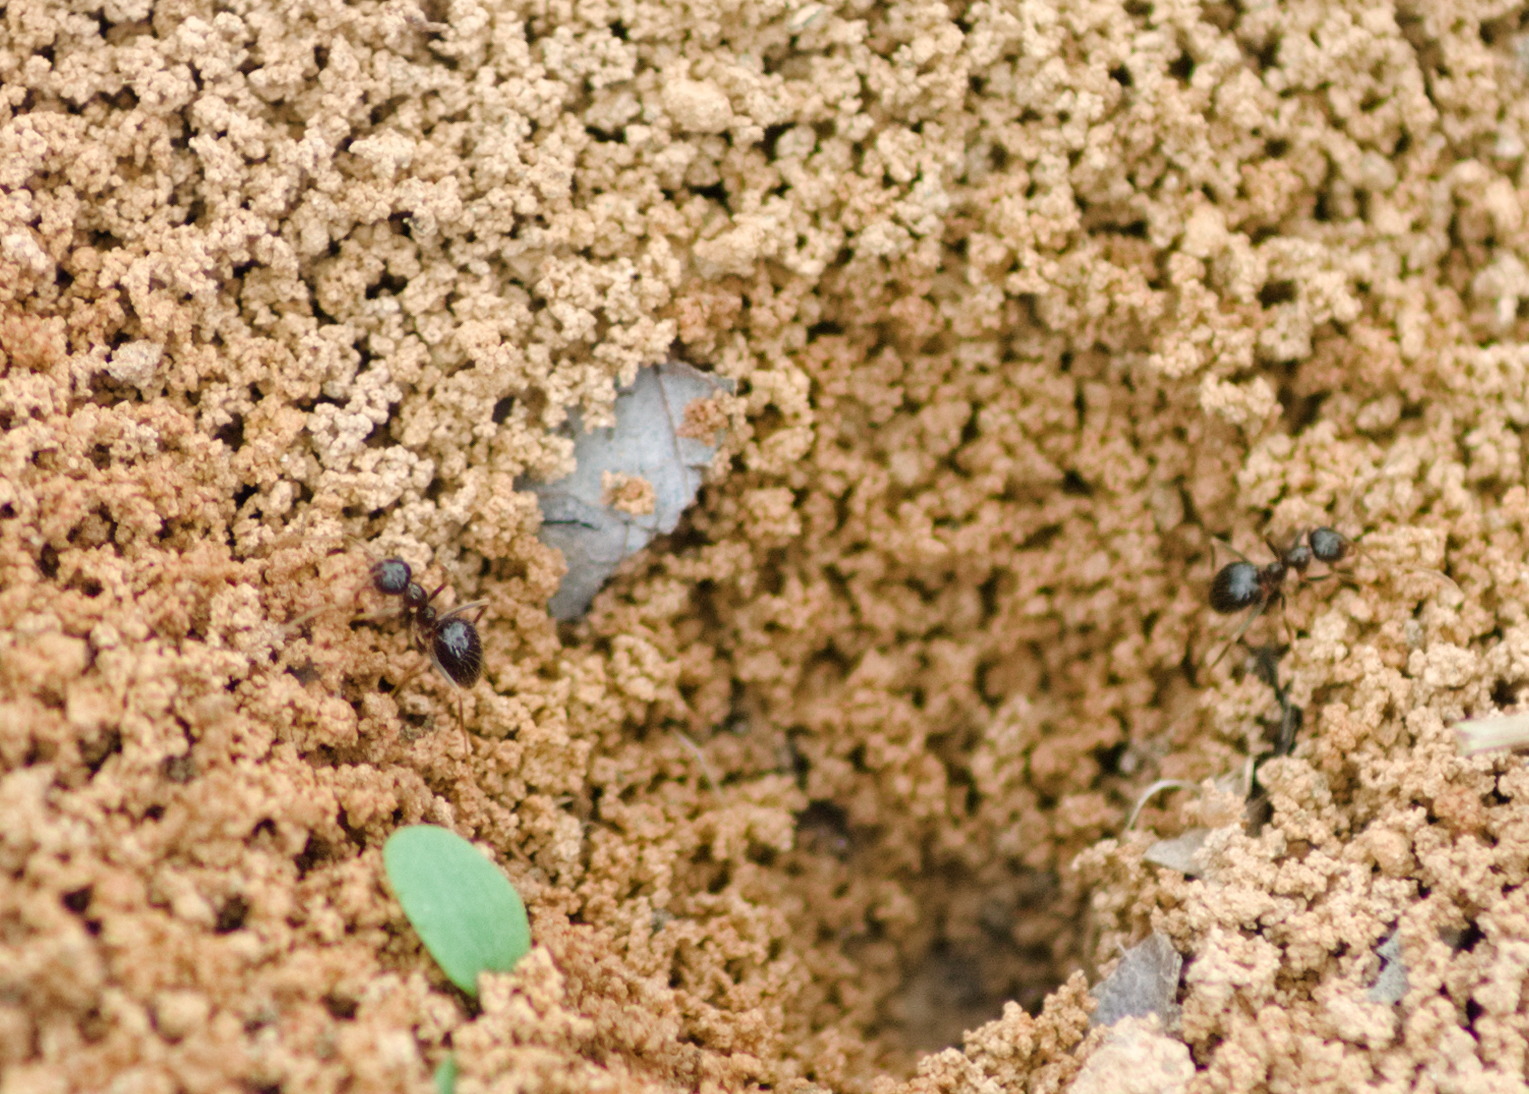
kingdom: Animalia
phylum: Arthropoda
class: Insecta
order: Hymenoptera
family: Formicidae
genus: Prenolepis
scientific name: Prenolepis imparis
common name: Small honey ant
